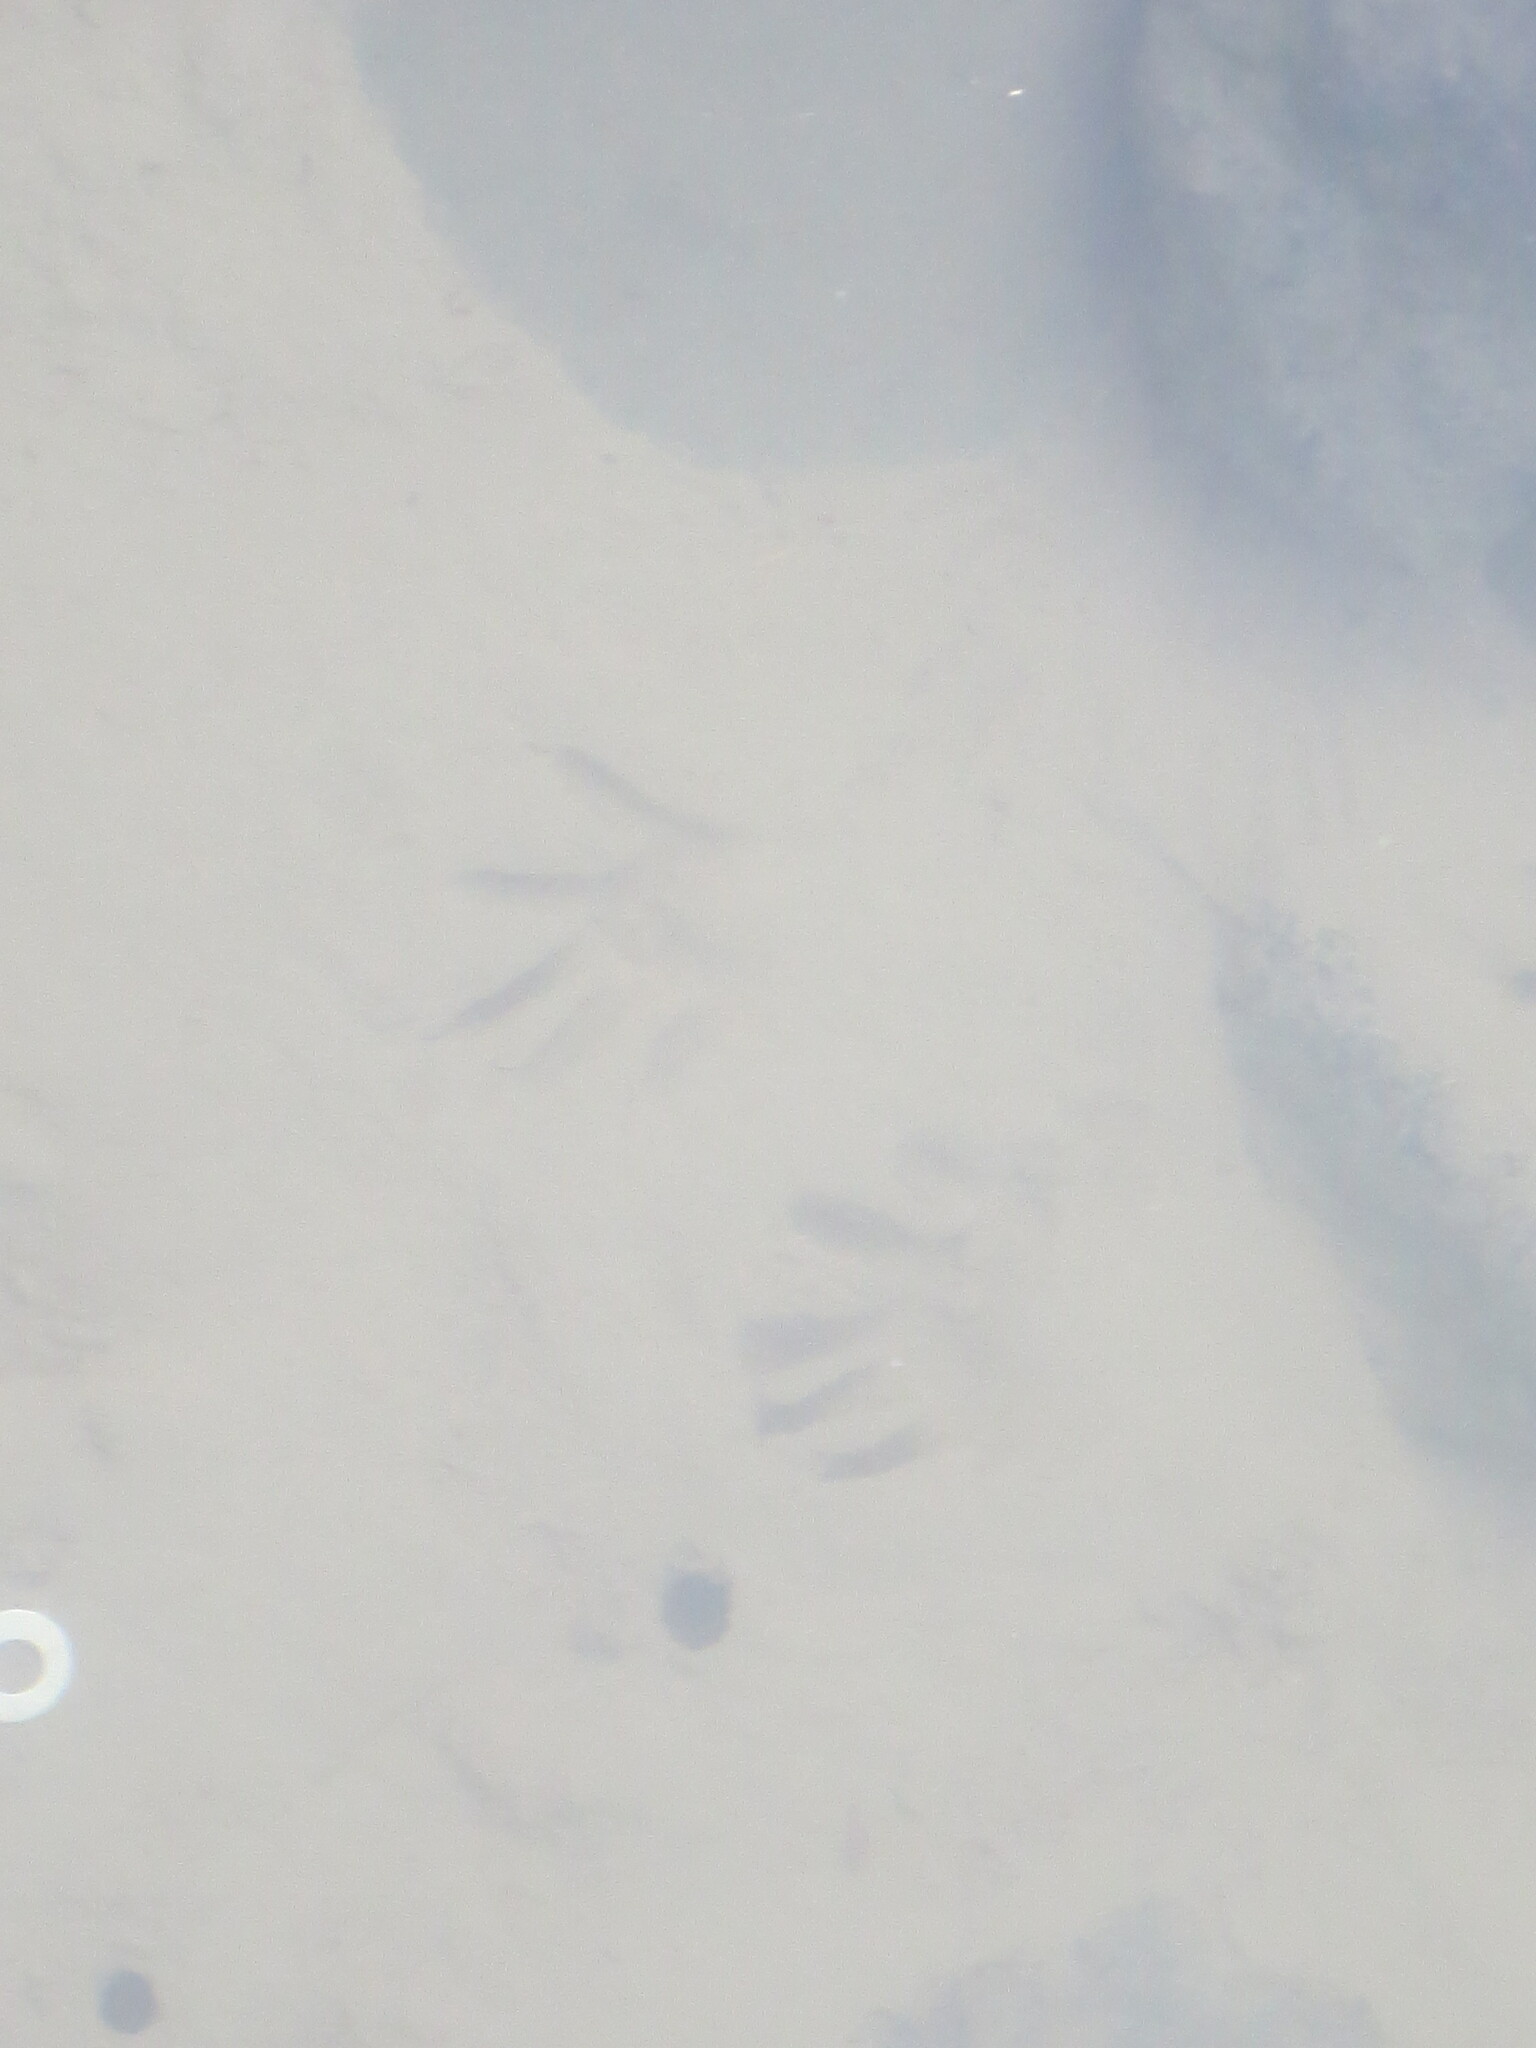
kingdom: Animalia
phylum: Chordata
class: Mammalia
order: Carnivora
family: Procyonidae
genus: Procyon
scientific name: Procyon lotor
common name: Raccoon
